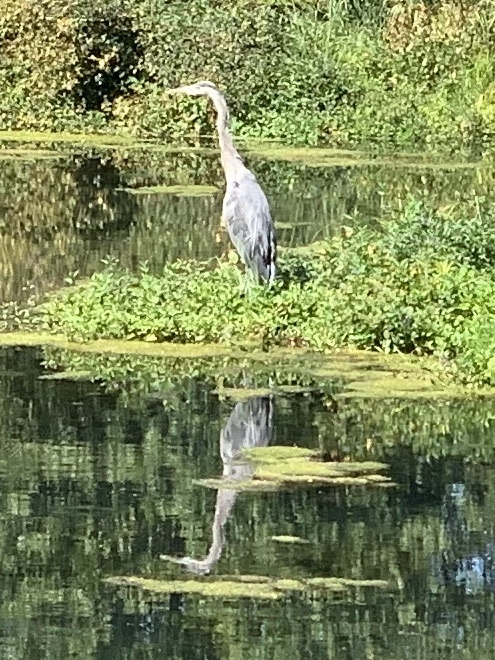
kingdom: Animalia
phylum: Chordata
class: Aves
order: Pelecaniformes
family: Ardeidae
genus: Ardea
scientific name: Ardea herodias
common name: Great blue heron
